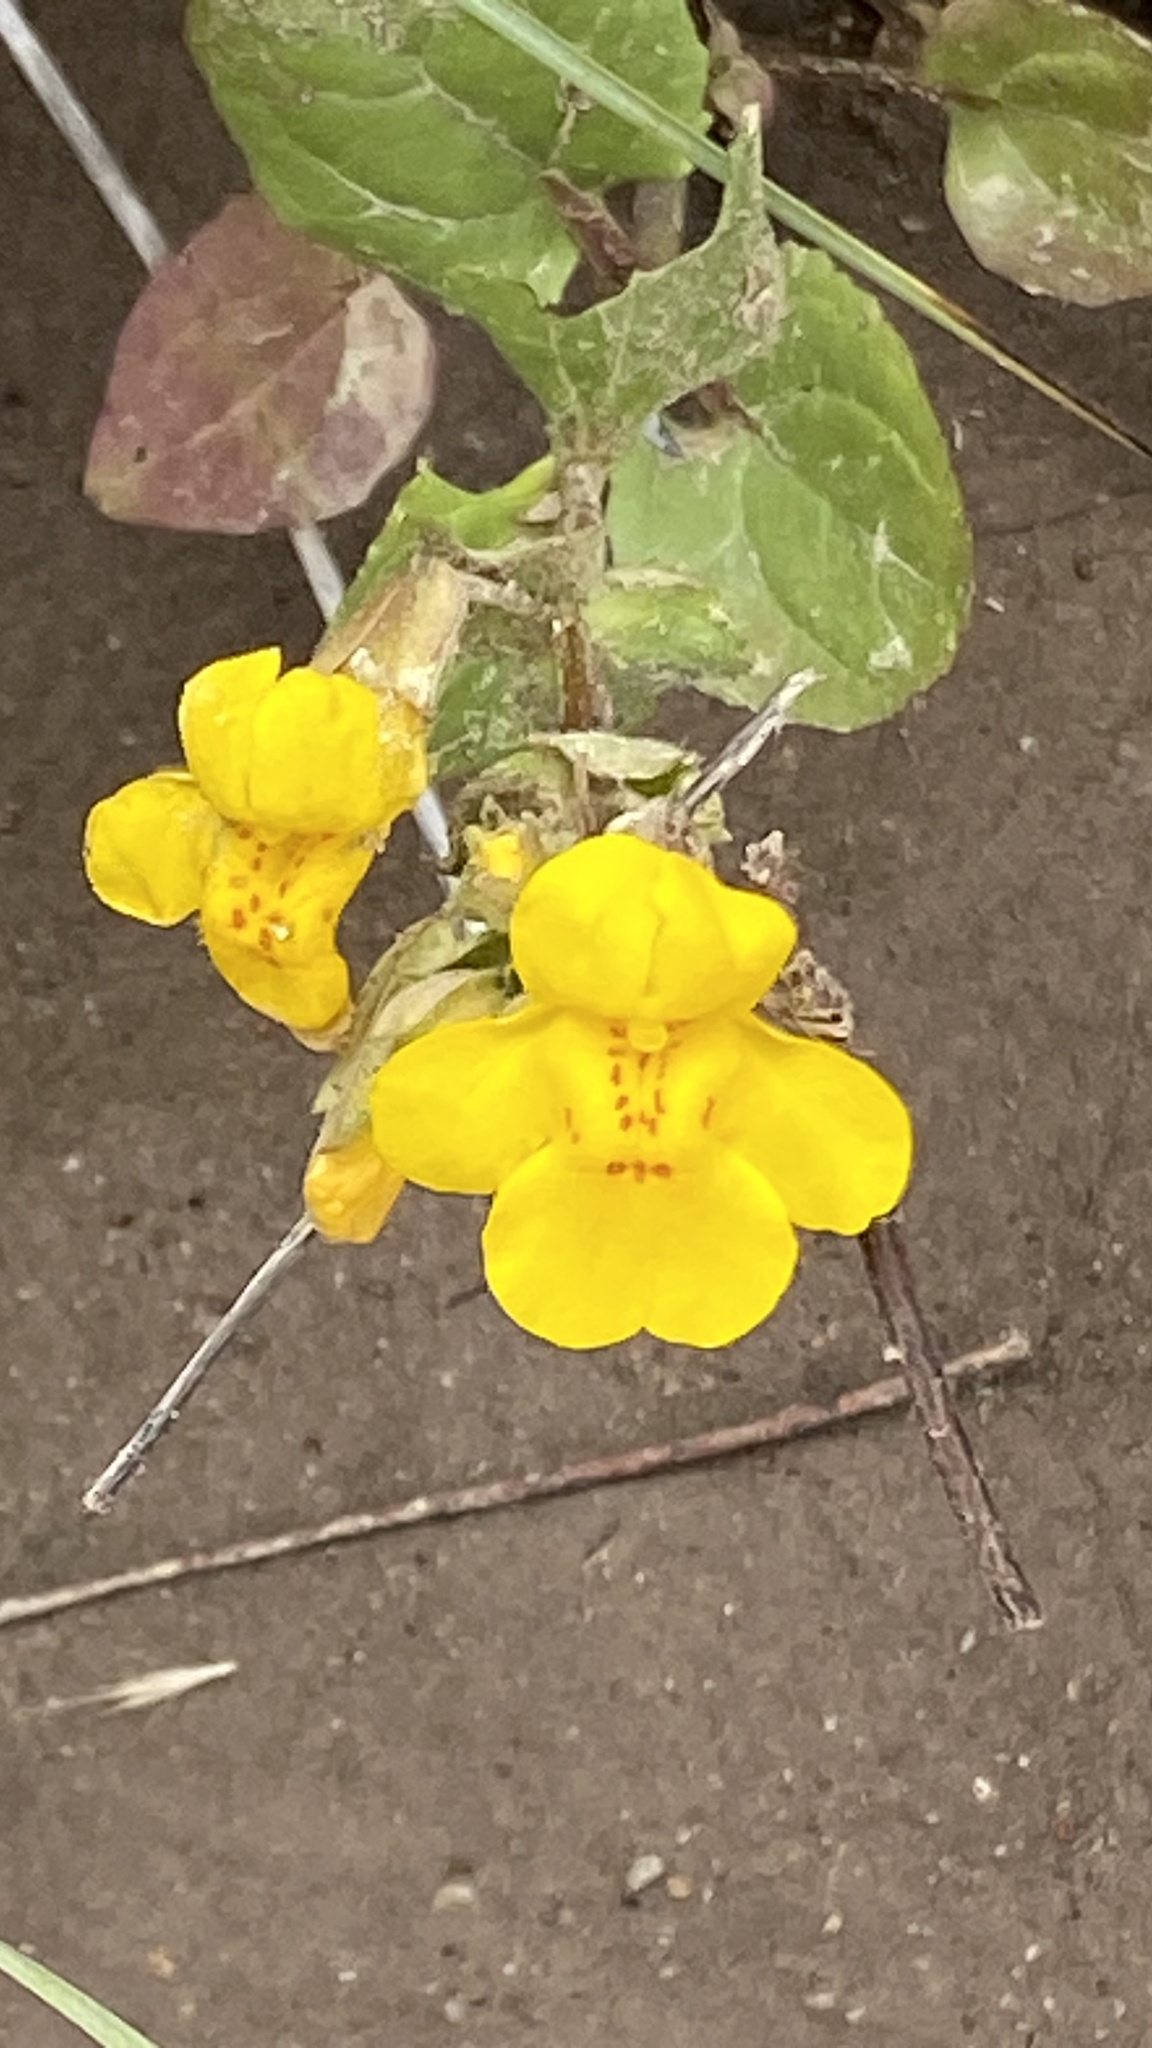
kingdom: Plantae
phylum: Tracheophyta
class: Magnoliopsida
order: Lamiales
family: Phrymaceae
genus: Erythranthe
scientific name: Erythranthe guttata
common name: Monkeyflower
